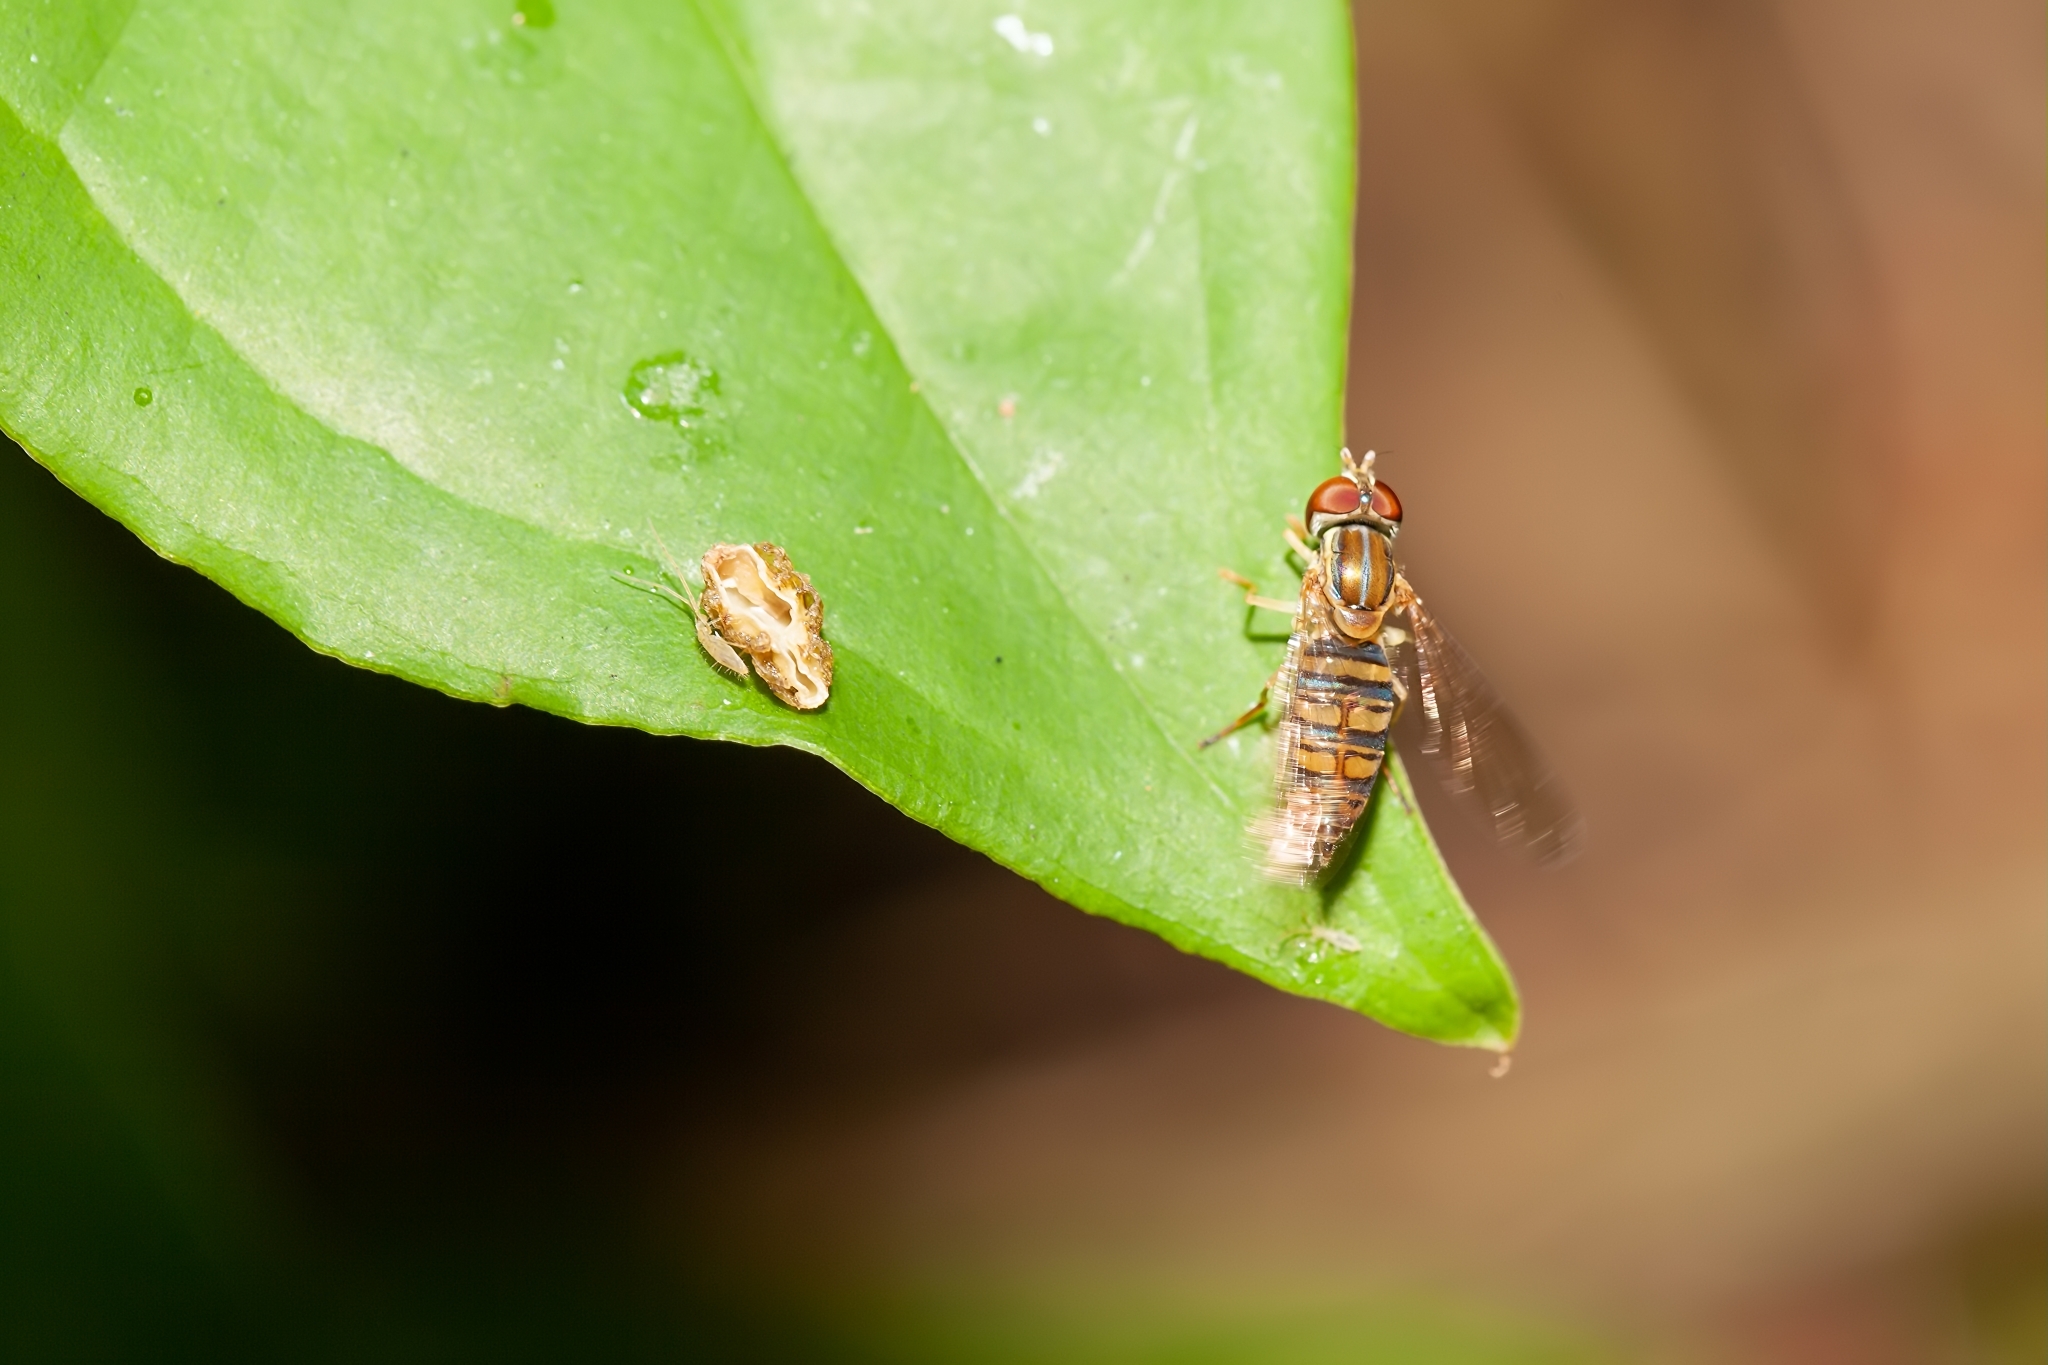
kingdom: Animalia
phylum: Arthropoda
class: Insecta
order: Diptera
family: Syrphidae
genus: Toxomerus
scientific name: Toxomerus politus
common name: Maize calligrapher
